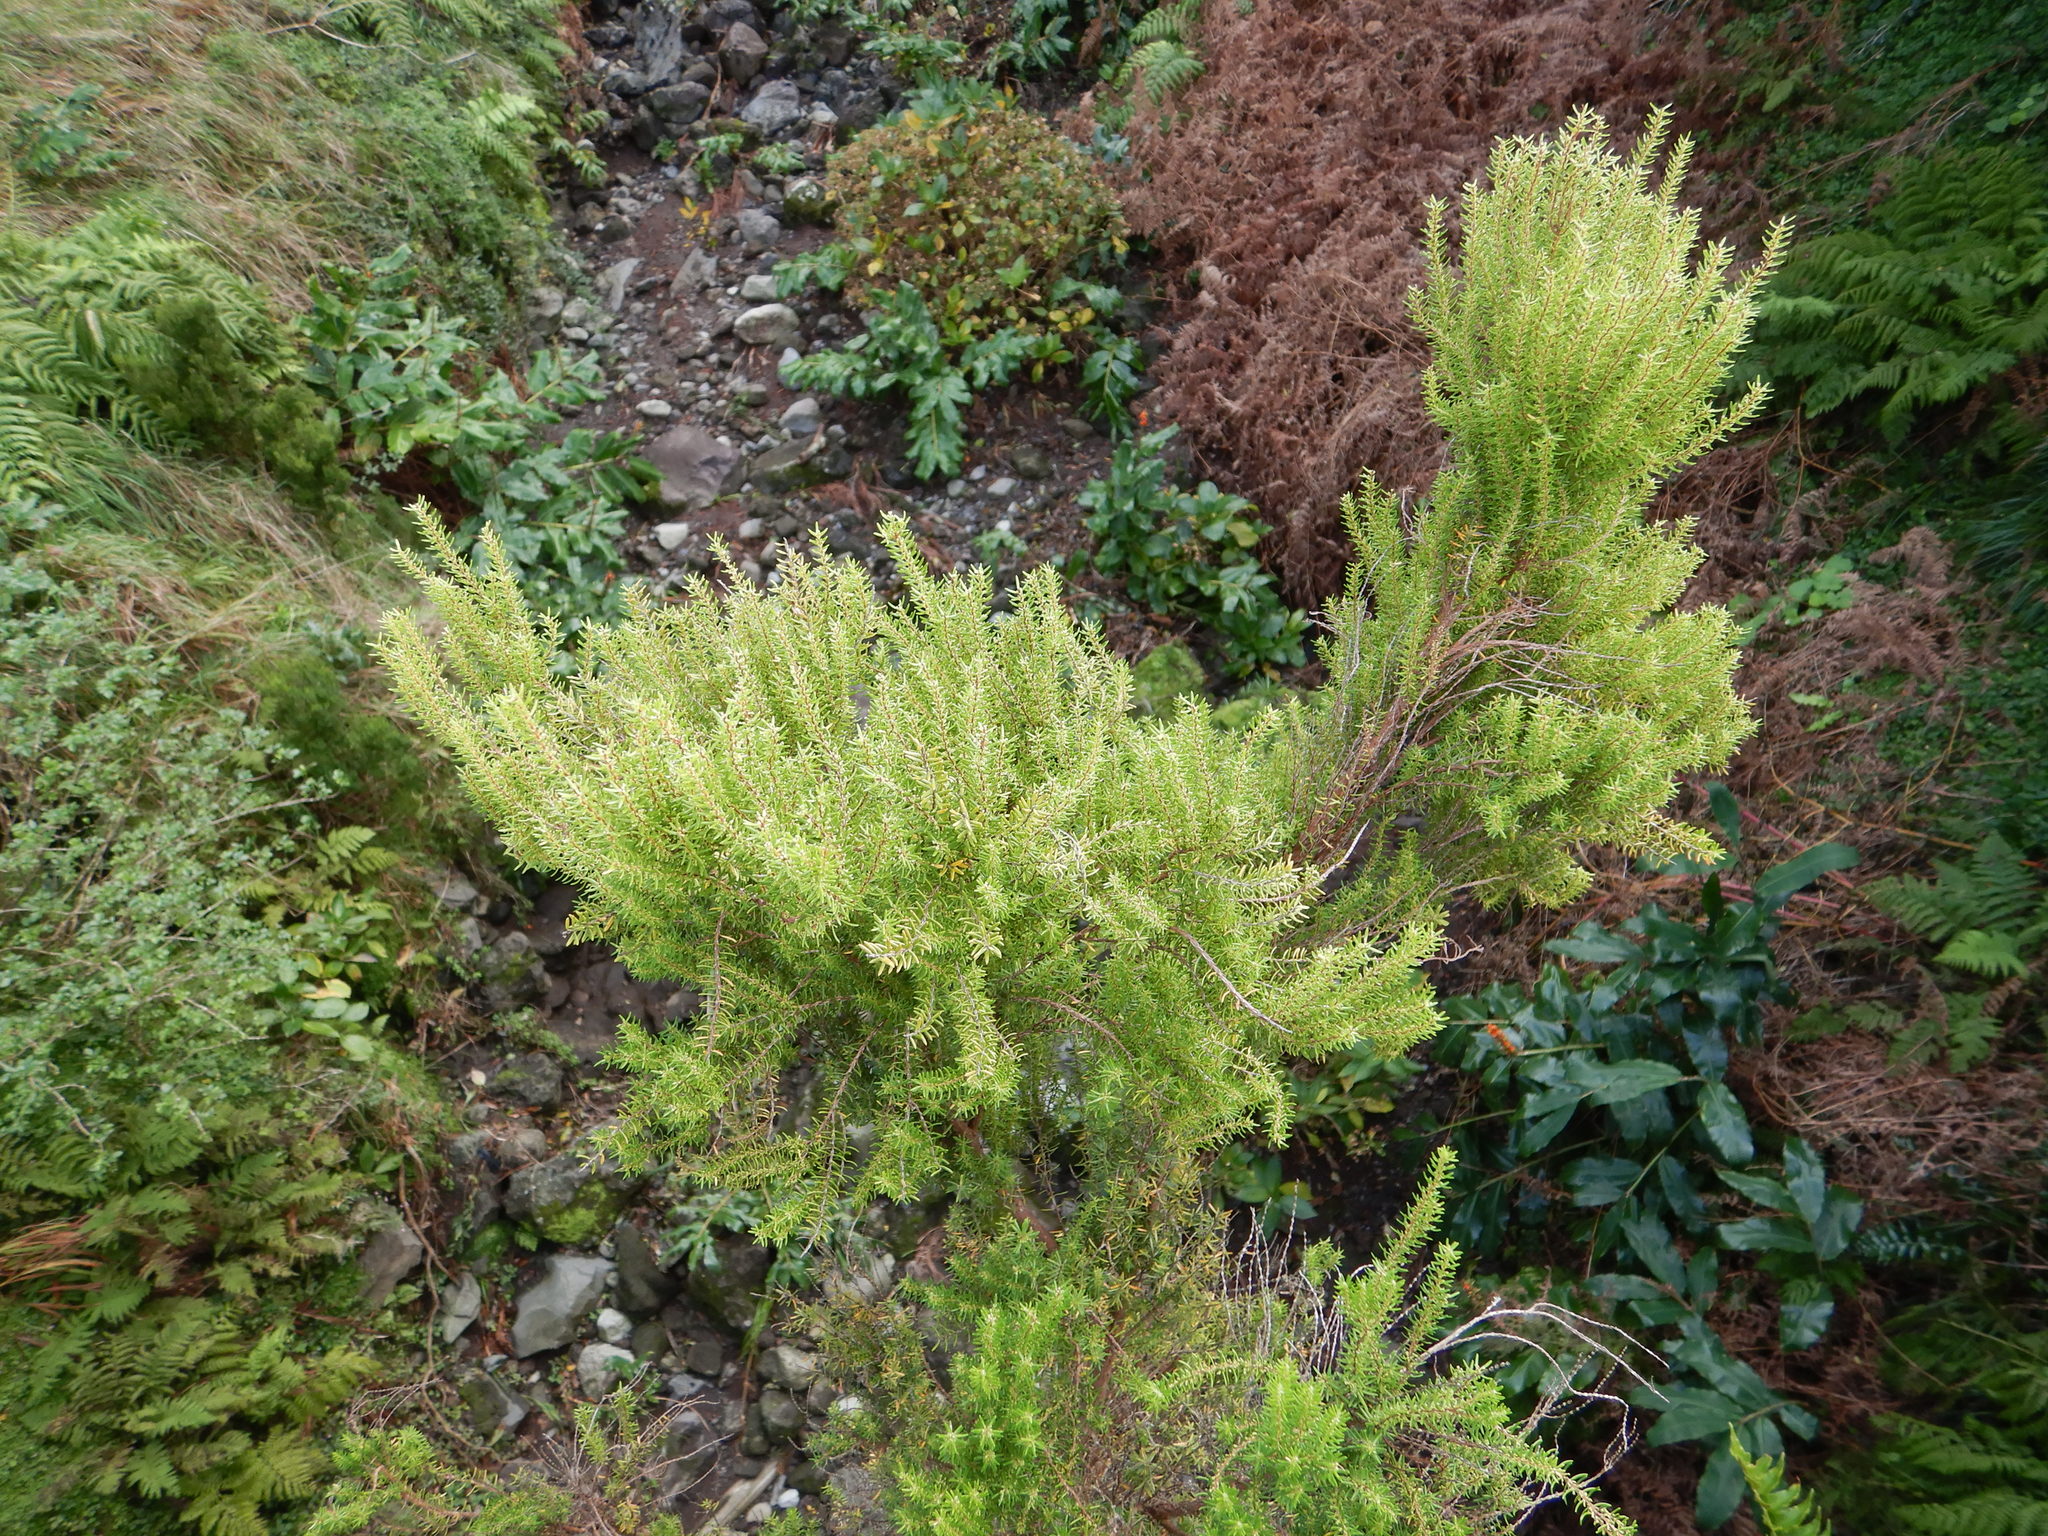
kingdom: Plantae
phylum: Tracheophyta
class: Magnoliopsida
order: Ericales
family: Ericaceae
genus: Erica
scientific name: Erica azorica
